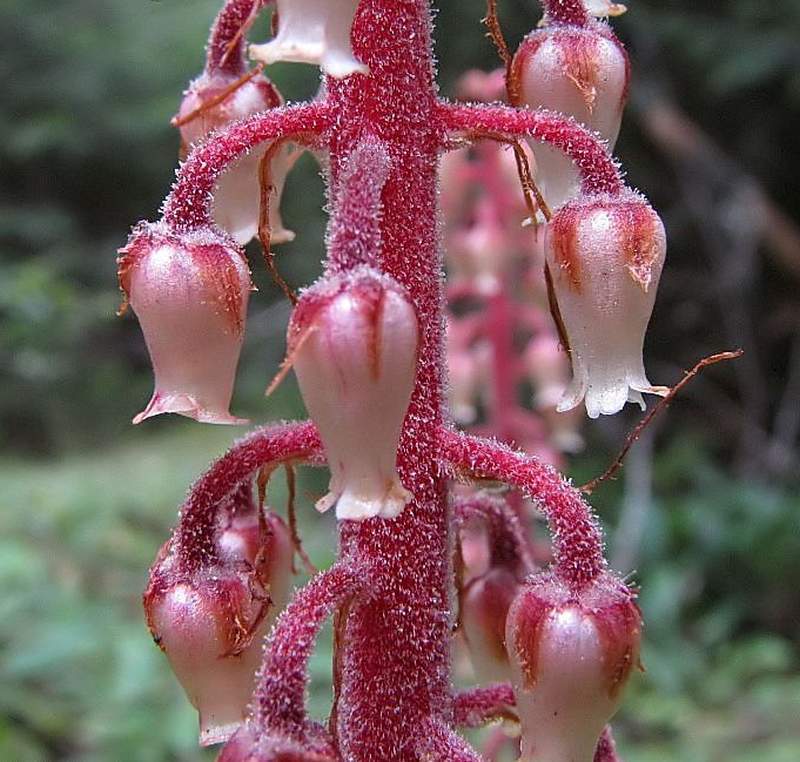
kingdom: Plantae
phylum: Tracheophyta
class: Magnoliopsida
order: Ericales
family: Ericaceae
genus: Pterospora
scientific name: Pterospora andromedea
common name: Giant bird's-nest
